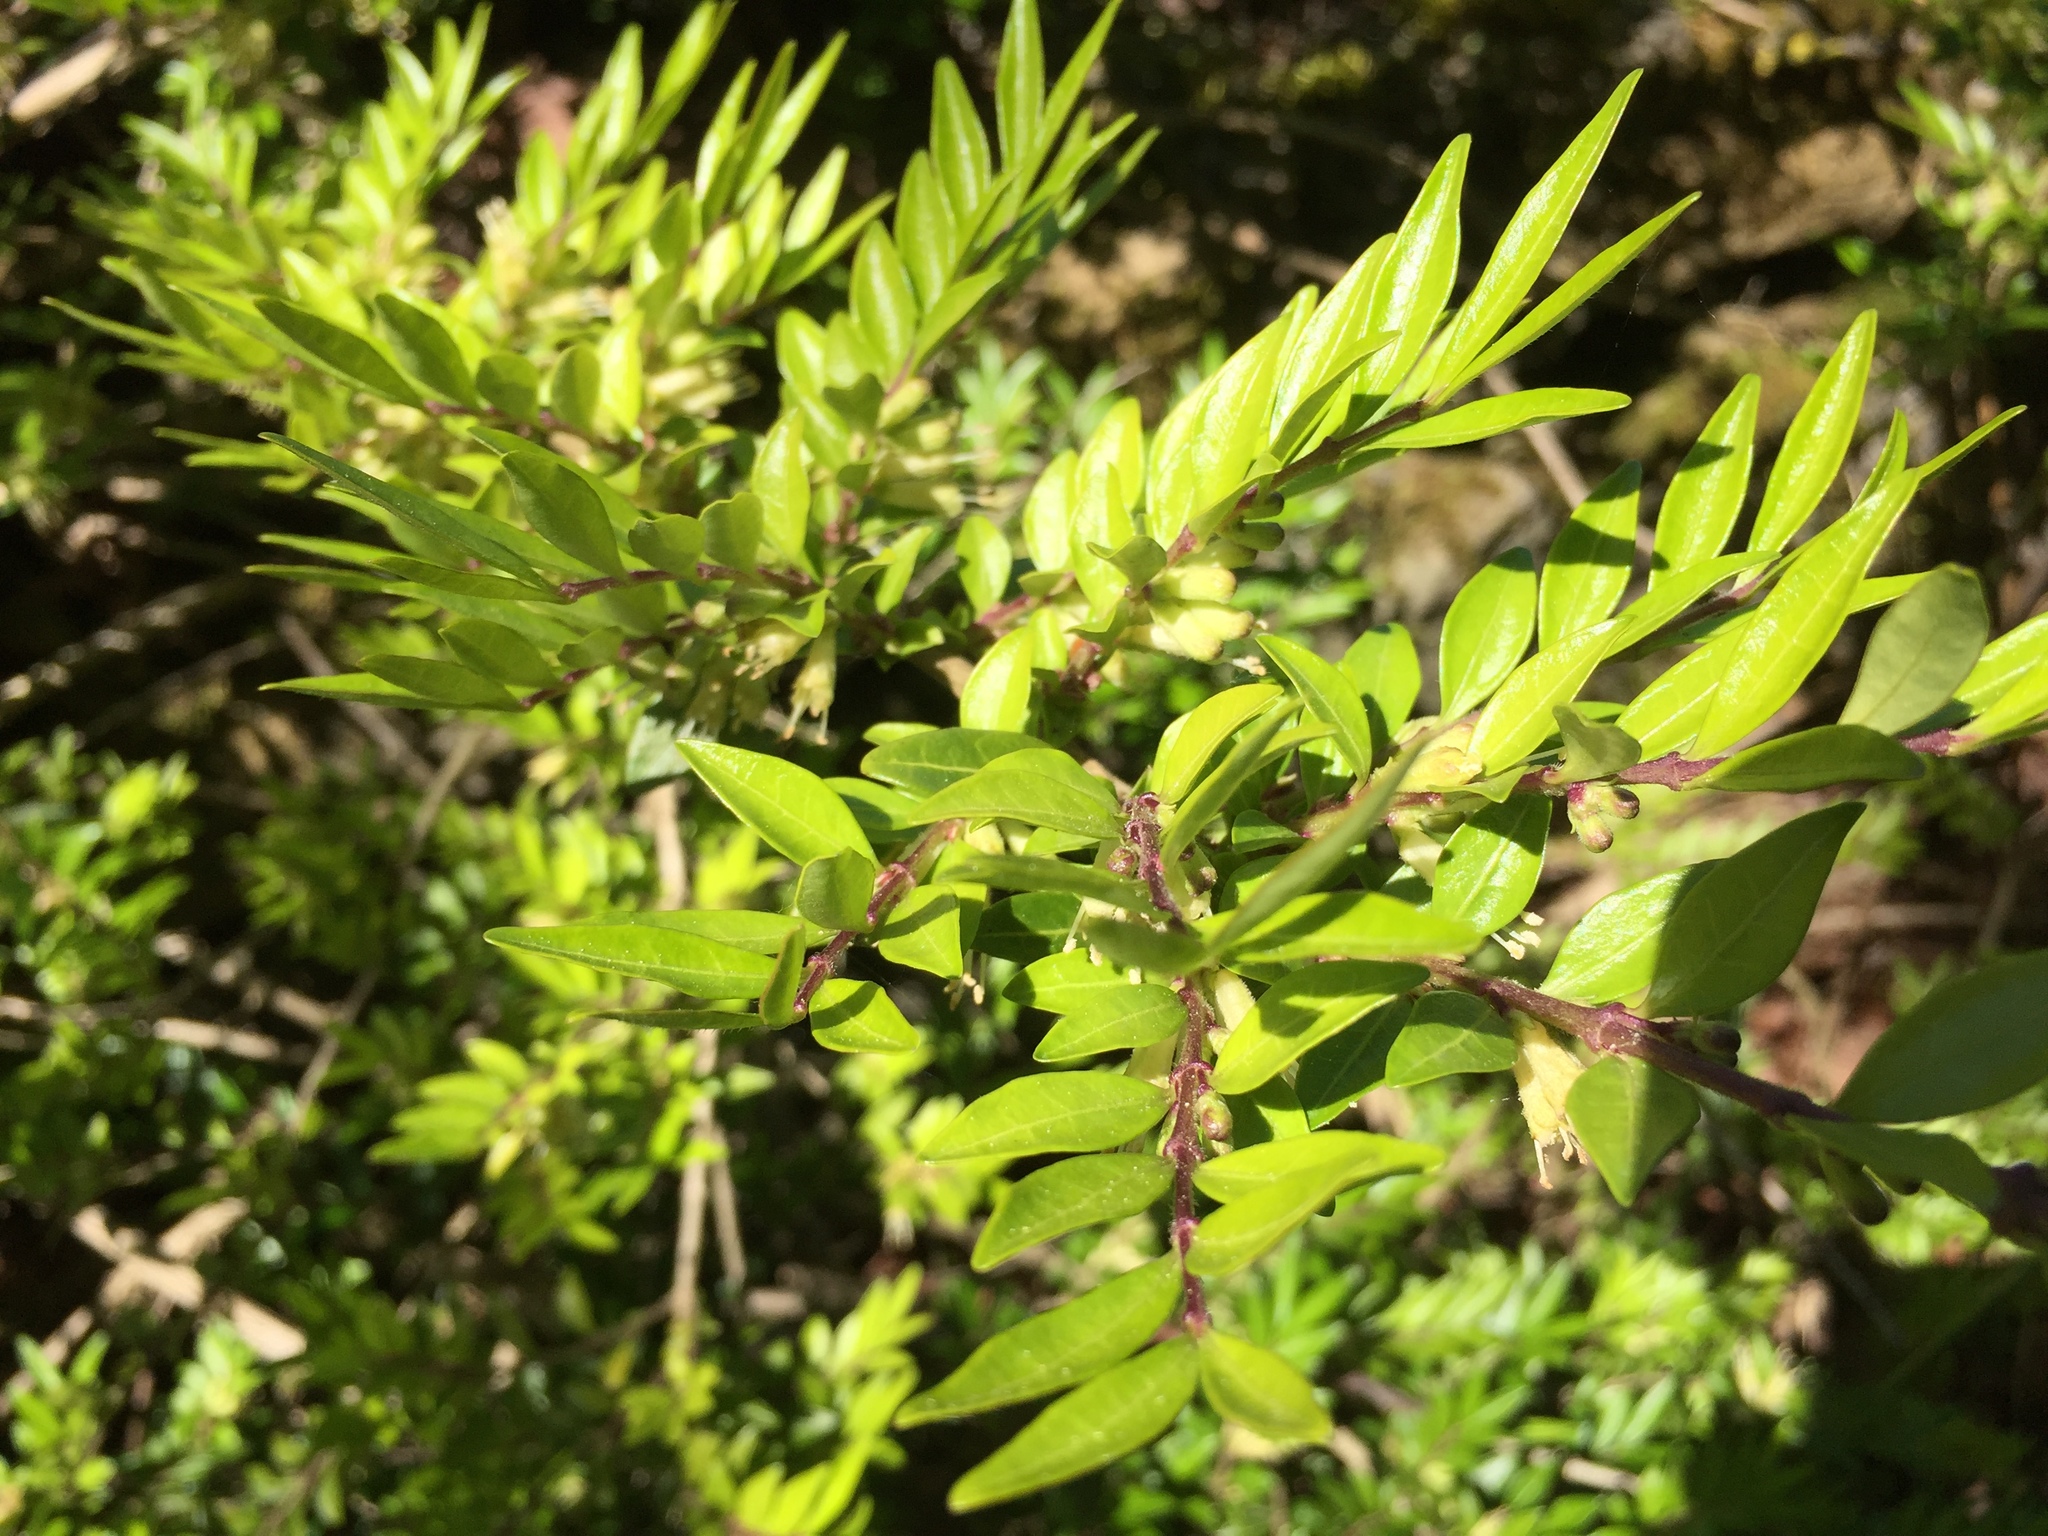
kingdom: Plantae
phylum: Tracheophyta
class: Magnoliopsida
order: Dipsacales
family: Caprifoliaceae
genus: Lonicera
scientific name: Lonicera ligustrina
